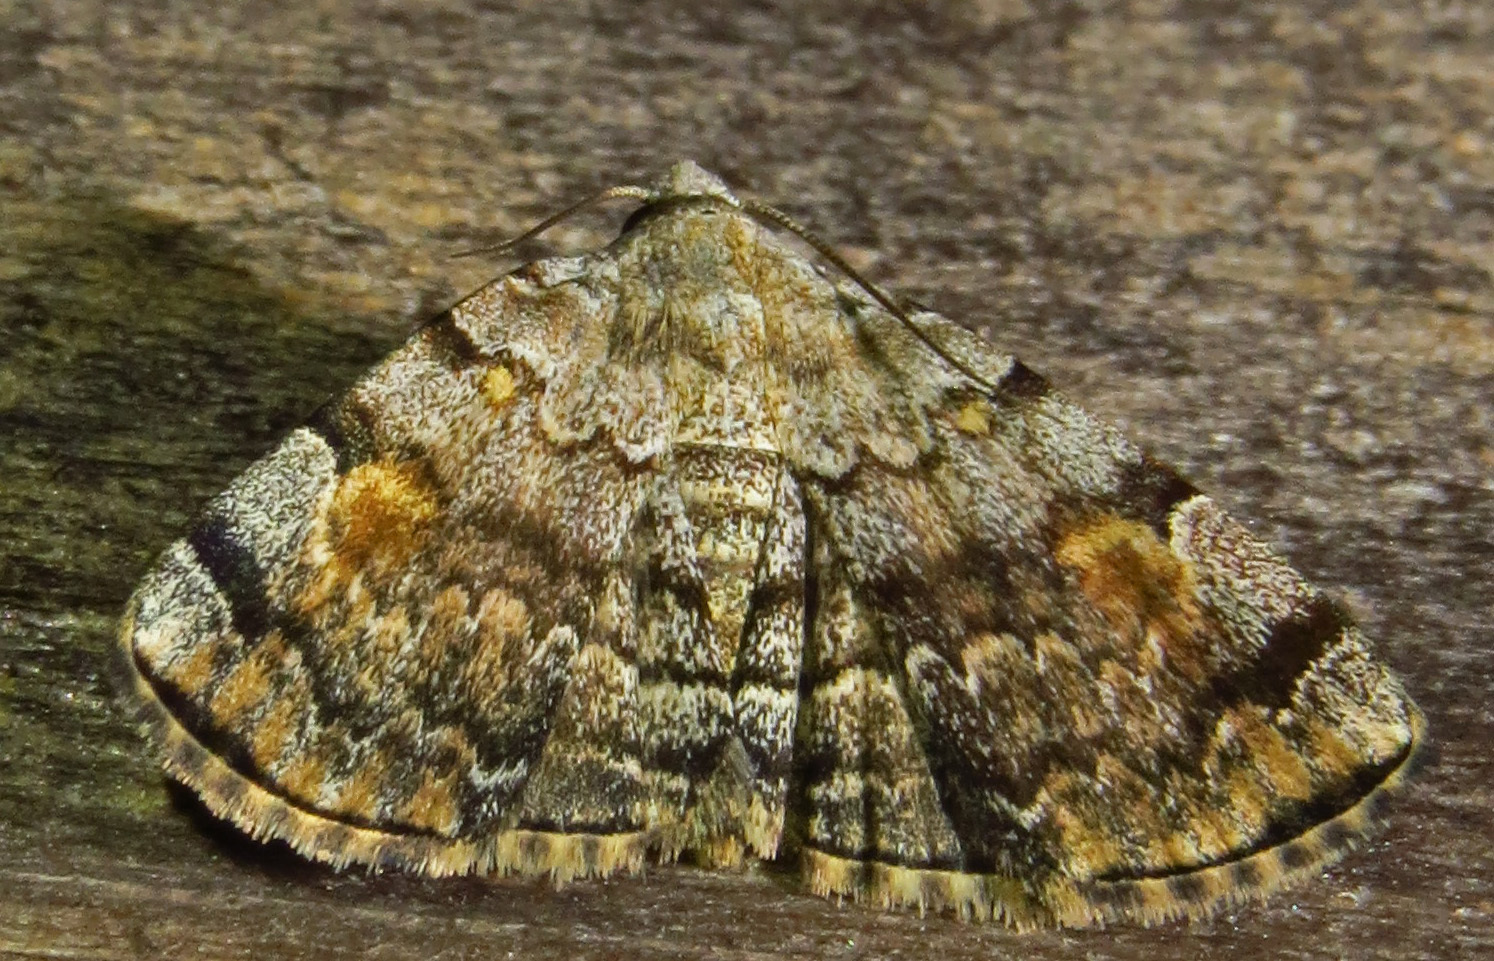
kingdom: Animalia
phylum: Arthropoda
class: Insecta
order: Lepidoptera
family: Erebidae
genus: Idia
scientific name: Idia americalis
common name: American idia moth
